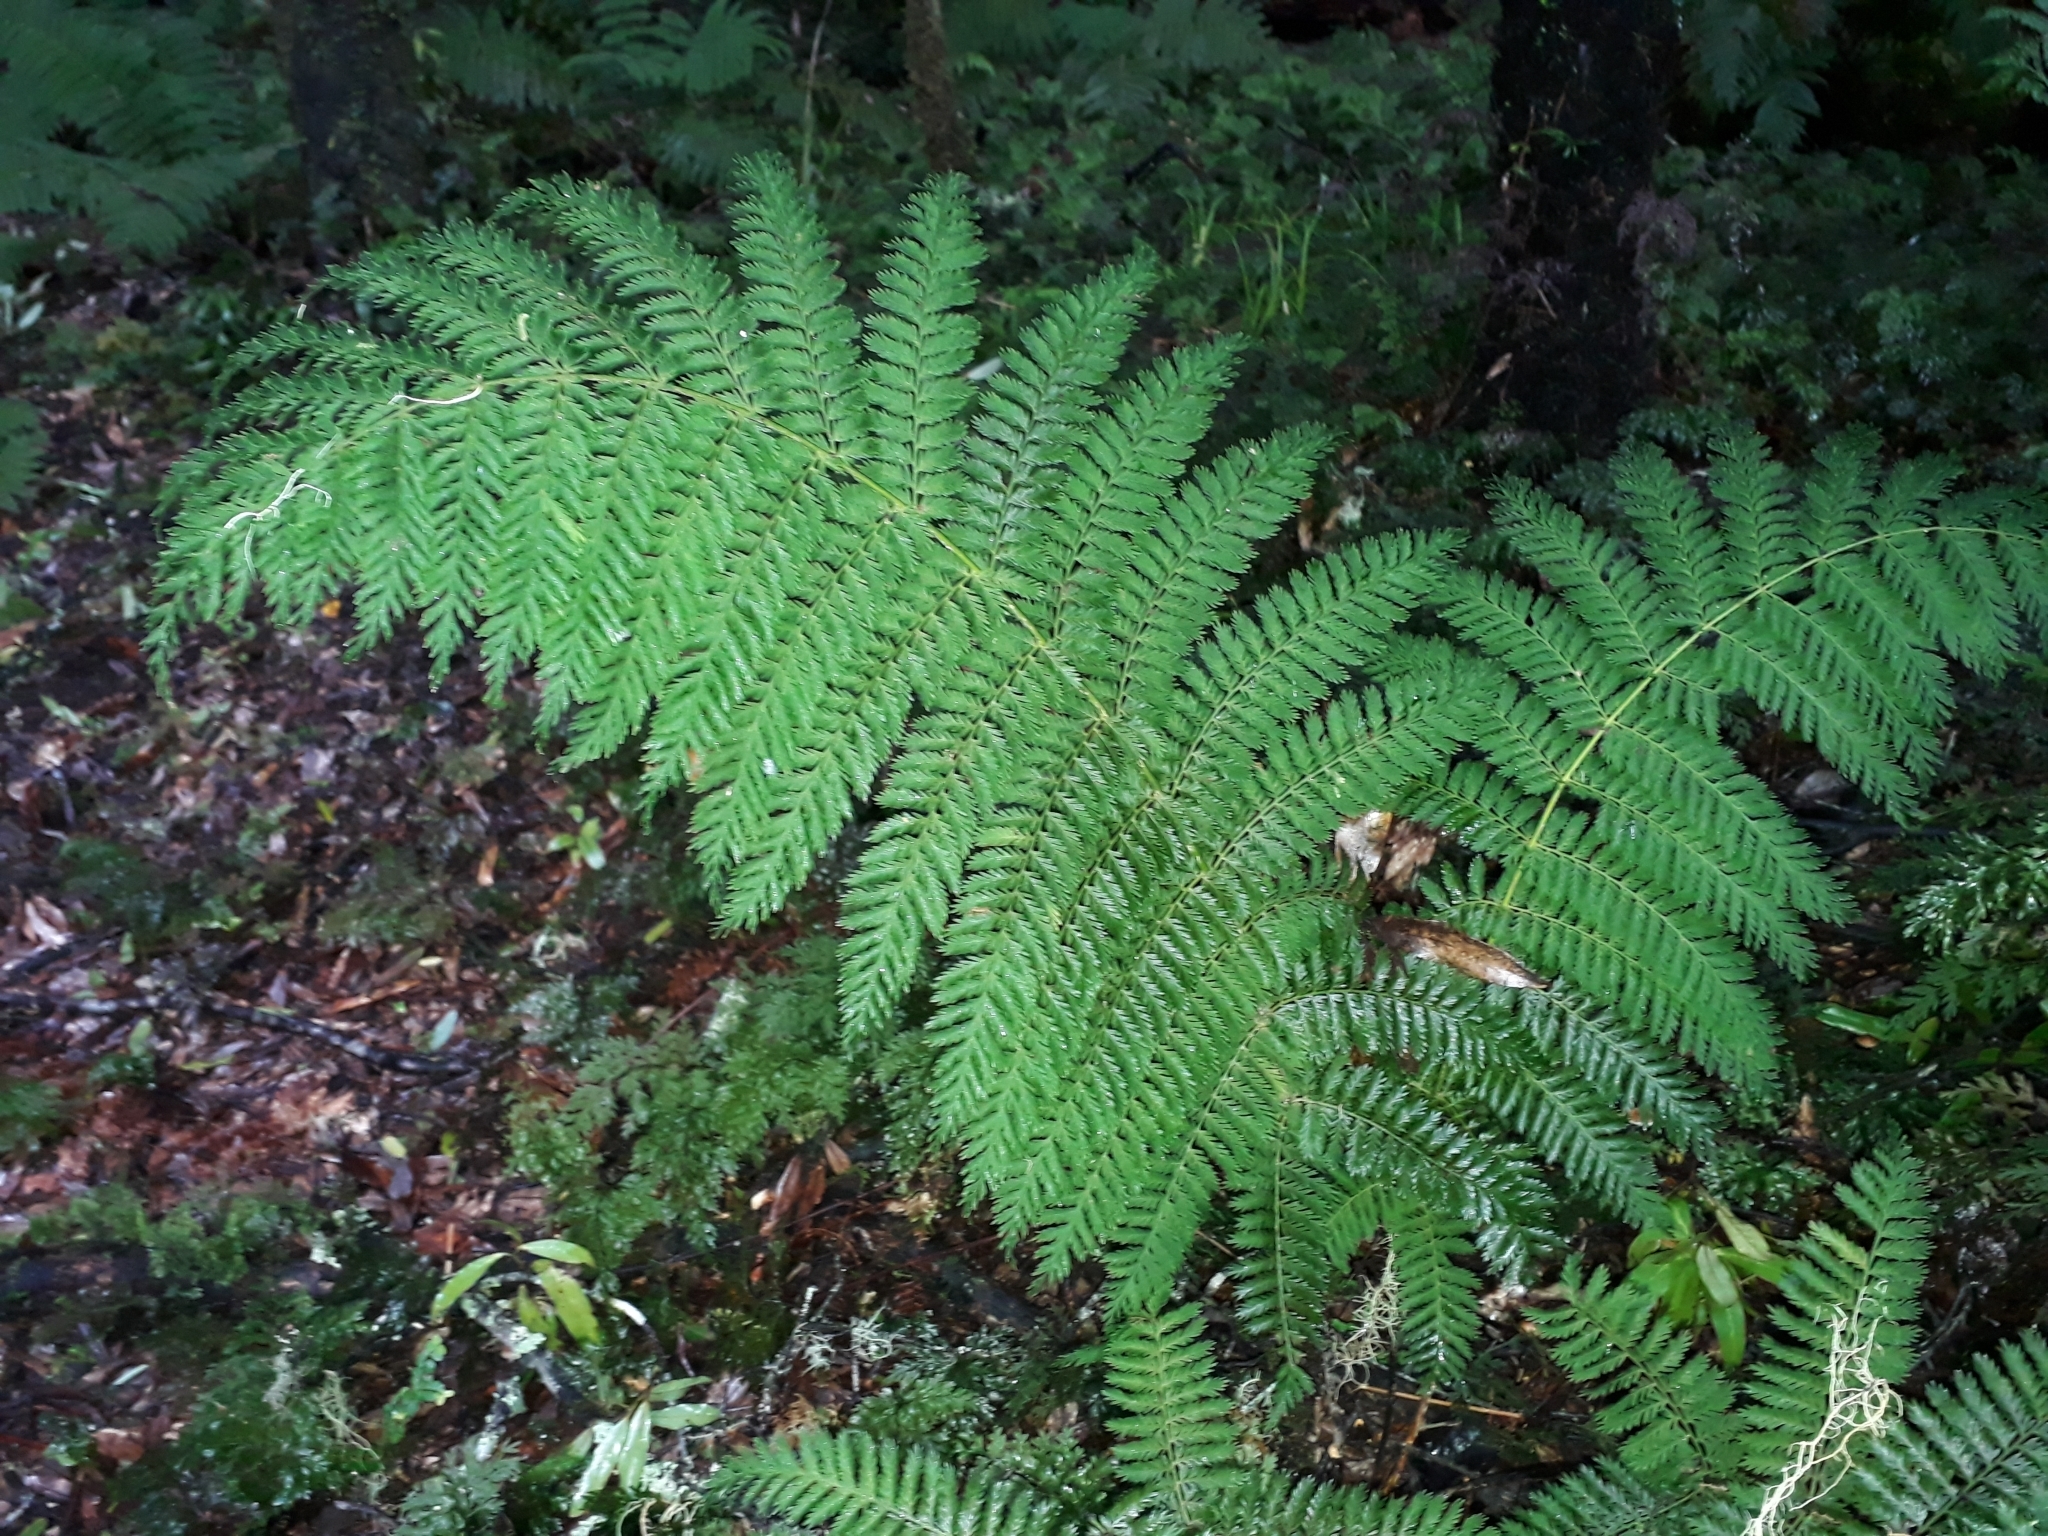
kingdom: Plantae
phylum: Tracheophyta
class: Polypodiopsida
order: Osmundales
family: Osmundaceae
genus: Leptopteris
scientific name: Leptopteris hymenophylloides
